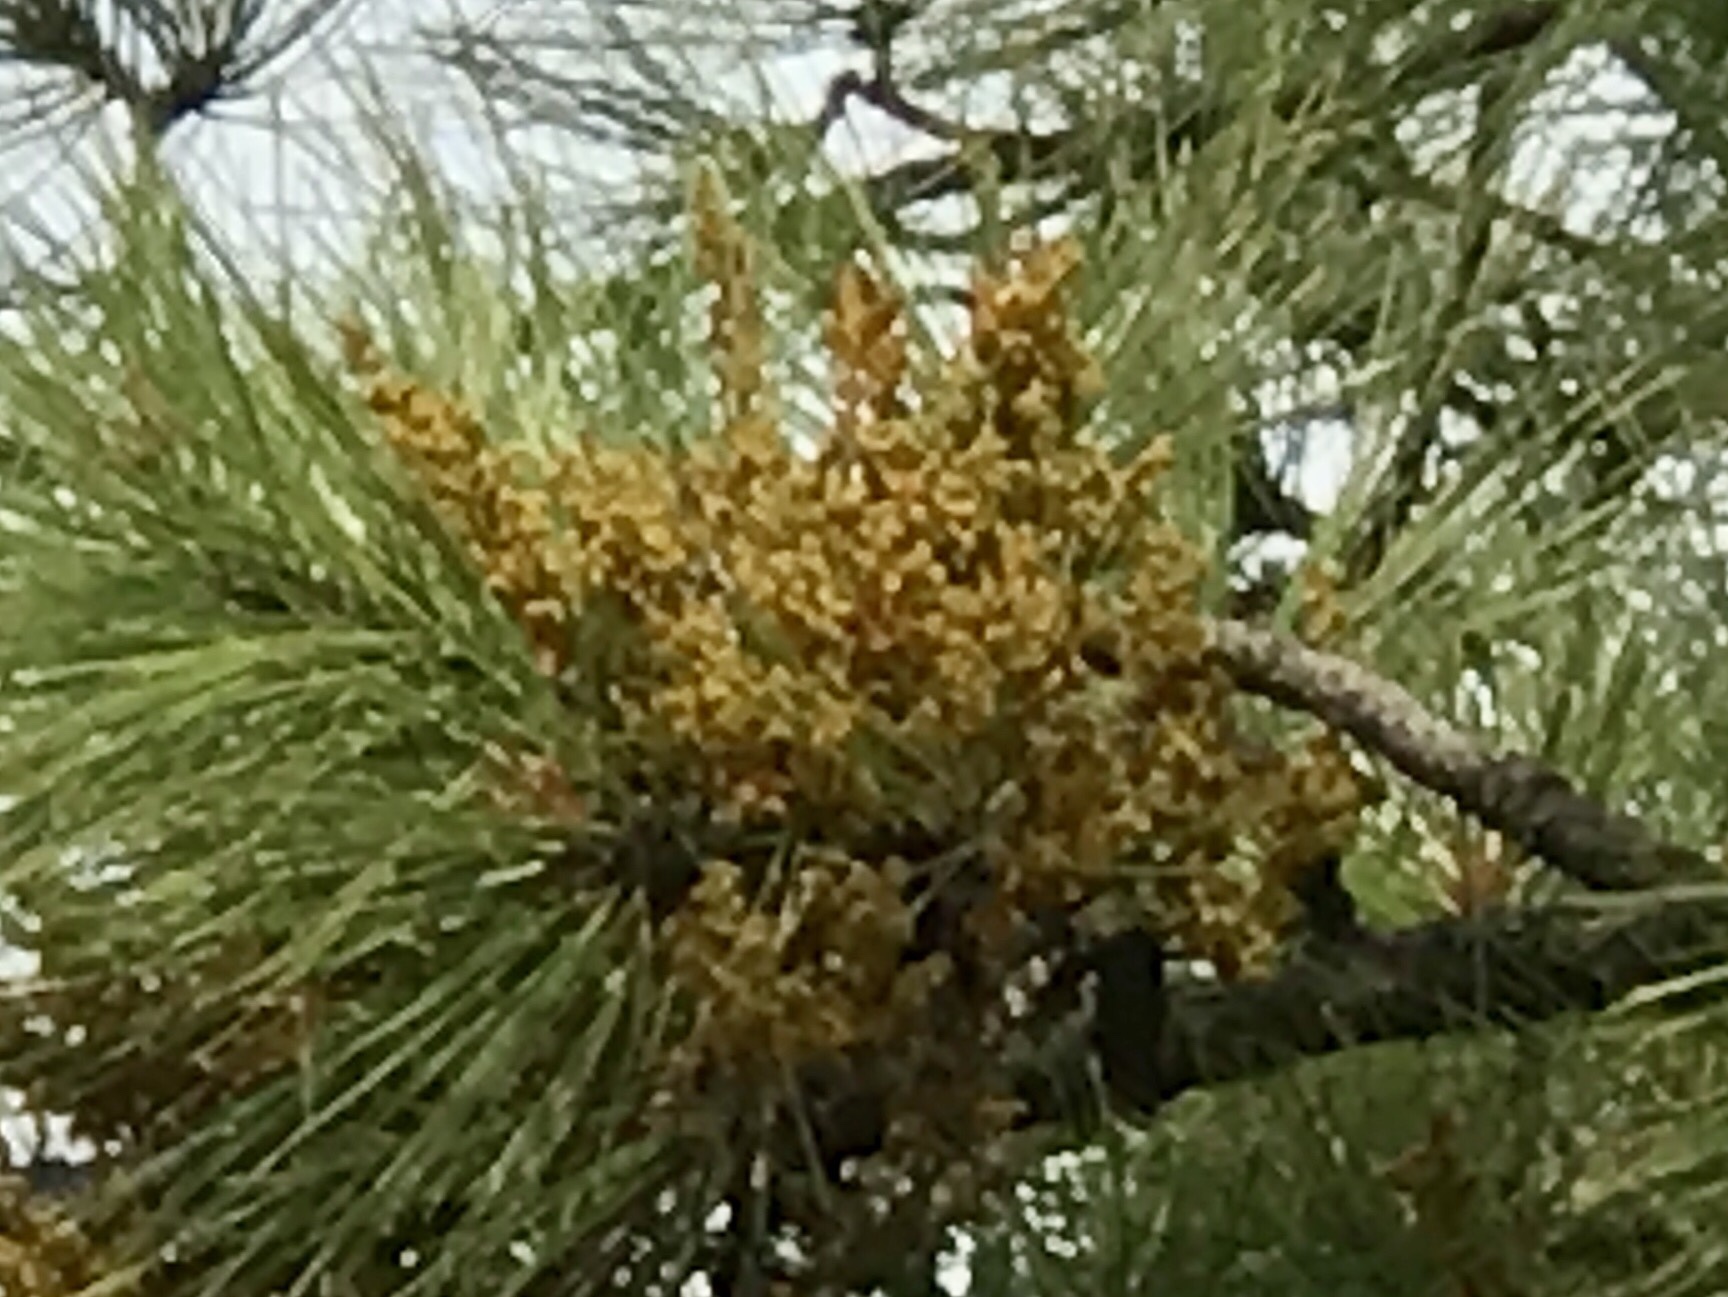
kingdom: Plantae
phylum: Tracheophyta
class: Magnoliopsida
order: Santalales
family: Viscaceae
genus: Arceuthobium
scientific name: Arceuthobium vaginatum
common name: Southwestern dwarf-mistletoe
